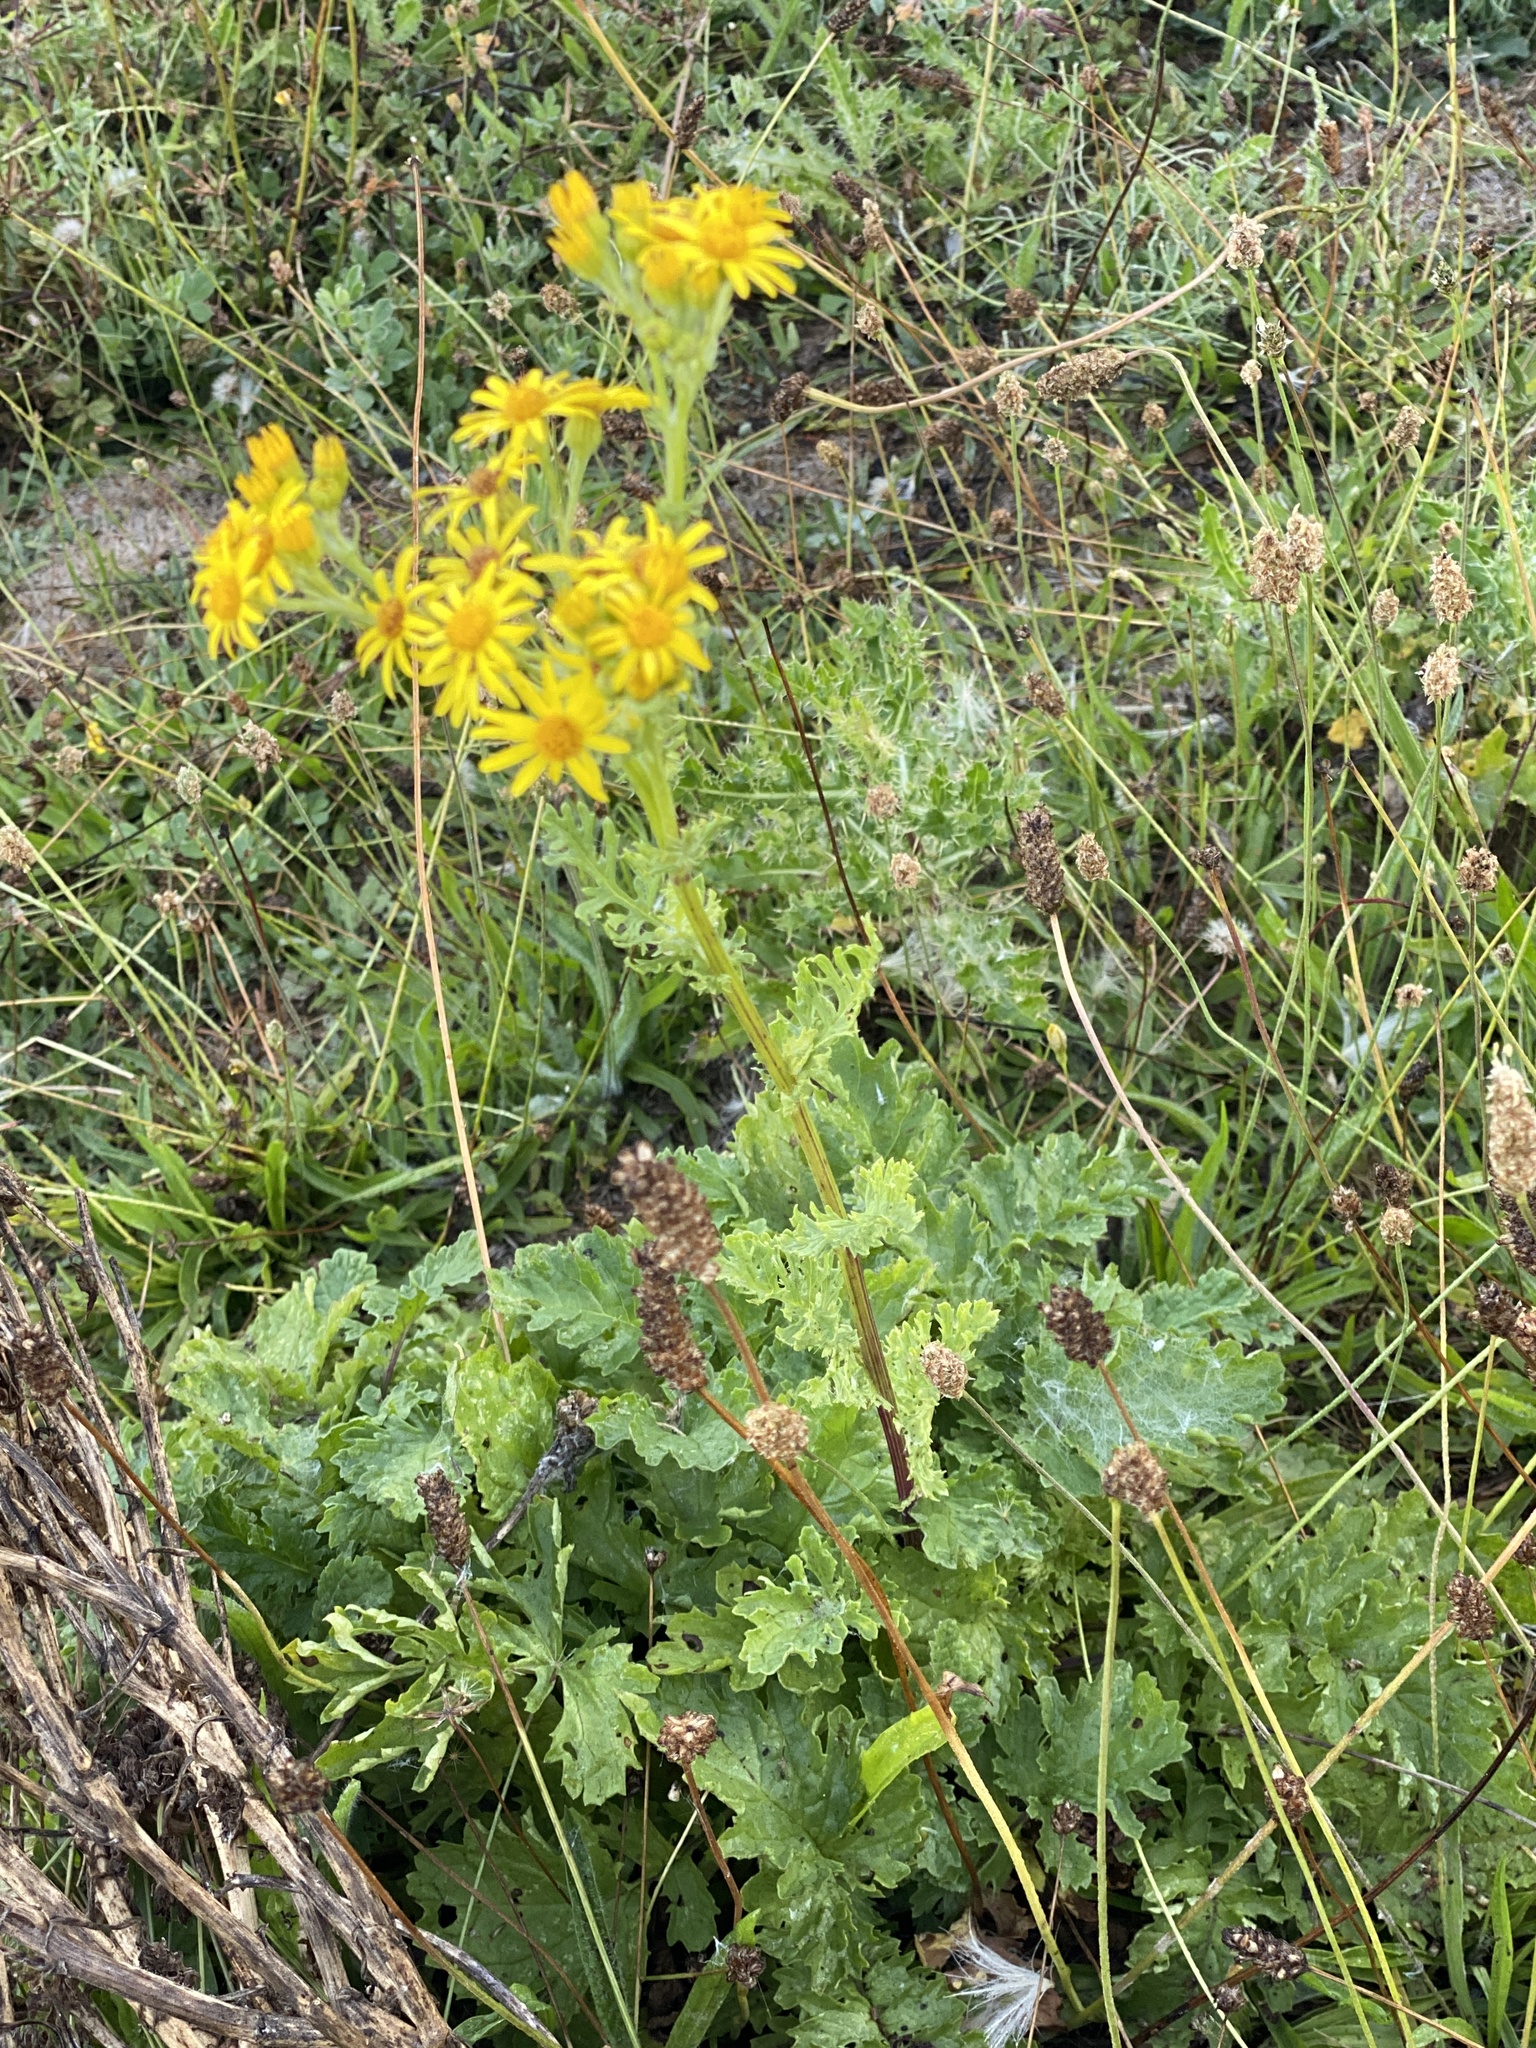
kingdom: Plantae
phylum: Tracheophyta
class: Magnoliopsida
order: Asterales
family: Asteraceae
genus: Jacobaea
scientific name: Jacobaea vulgaris
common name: Stinking willie
